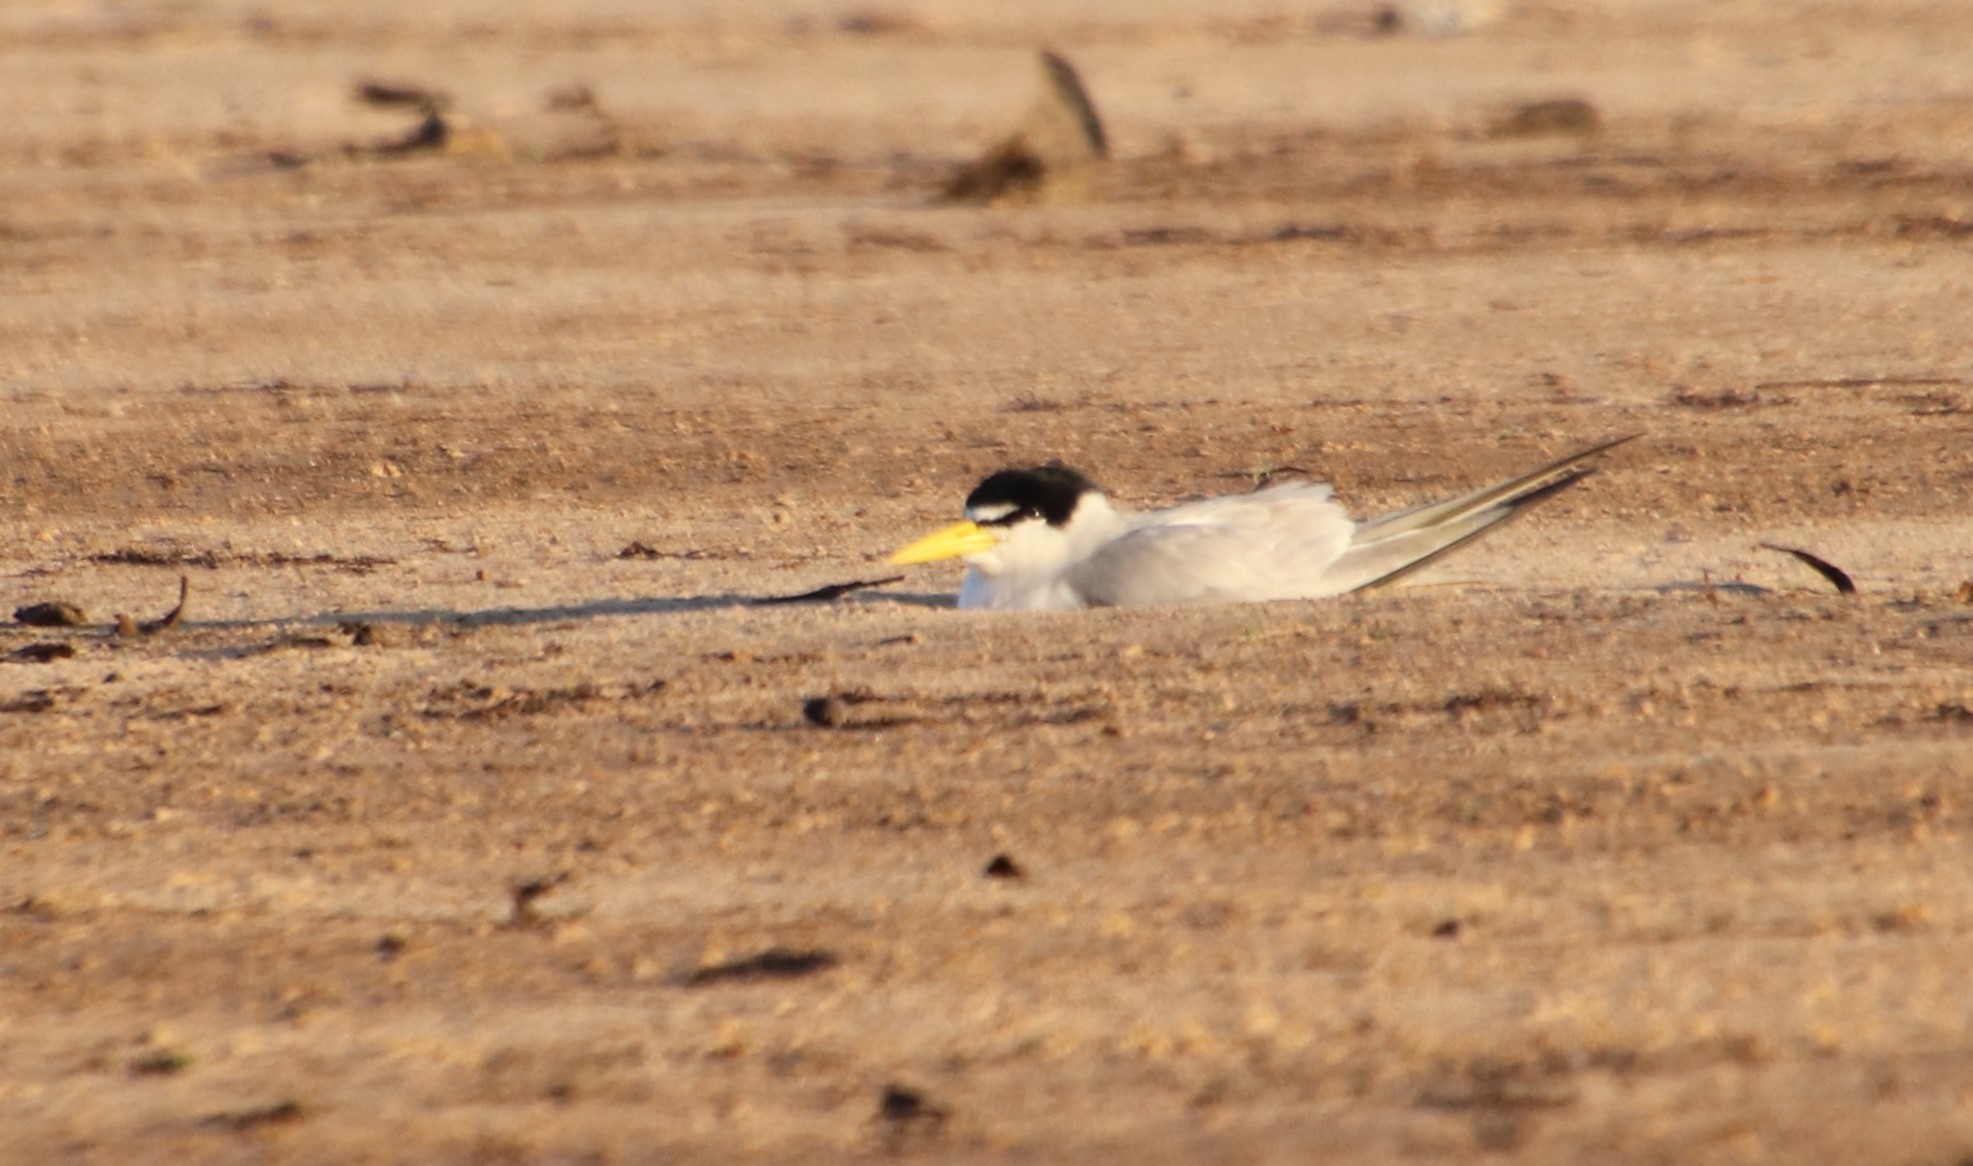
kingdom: Animalia
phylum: Chordata
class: Aves
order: Charadriiformes
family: Laridae
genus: Sternula
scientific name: Sternula superciliaris
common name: Yellow-billed tern
